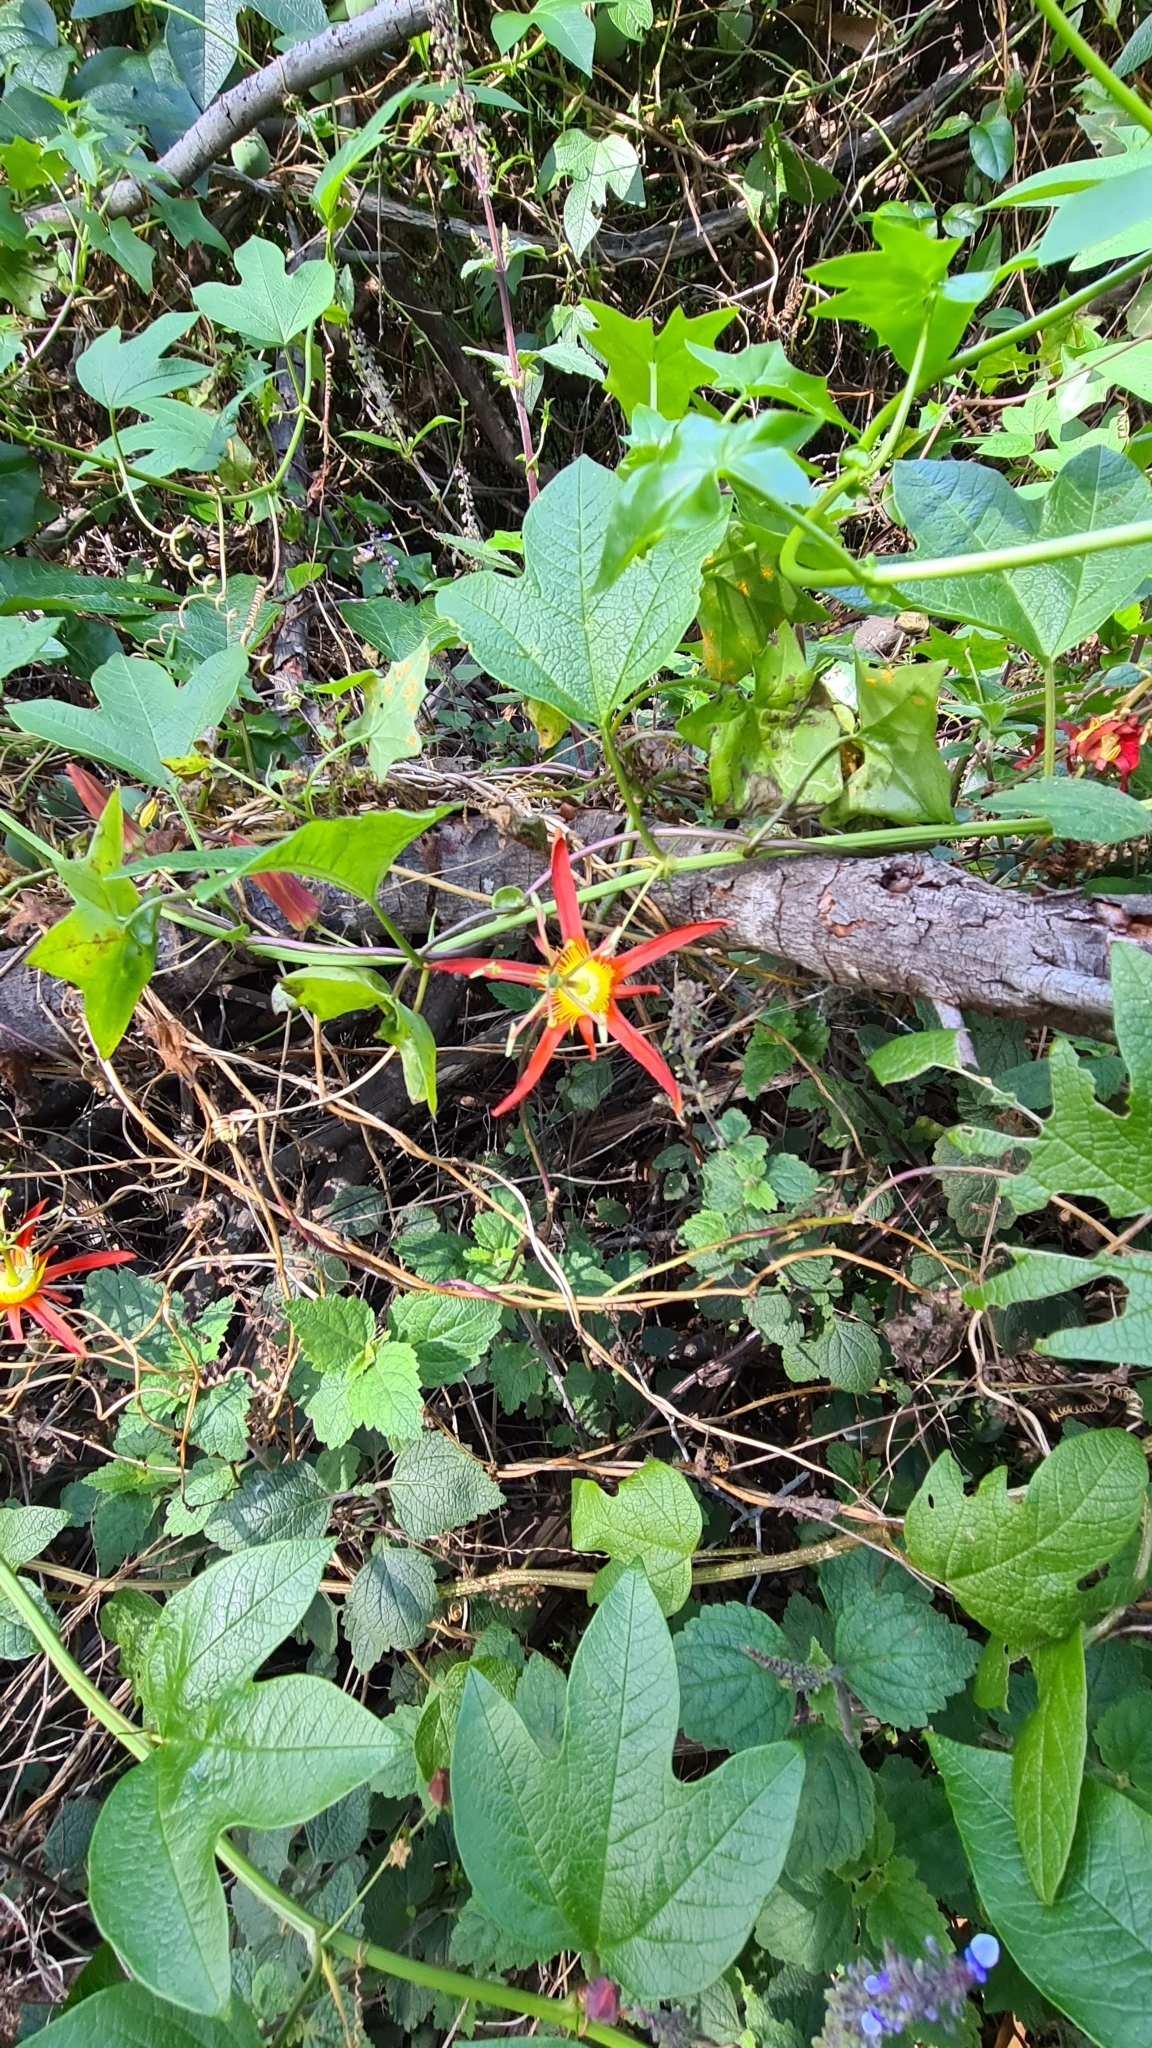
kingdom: Plantae
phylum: Tracheophyta
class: Magnoliopsida
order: Malpighiales
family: Passifloraceae
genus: Passiflora
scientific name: Passiflora cinnabarina
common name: Red passionflower
